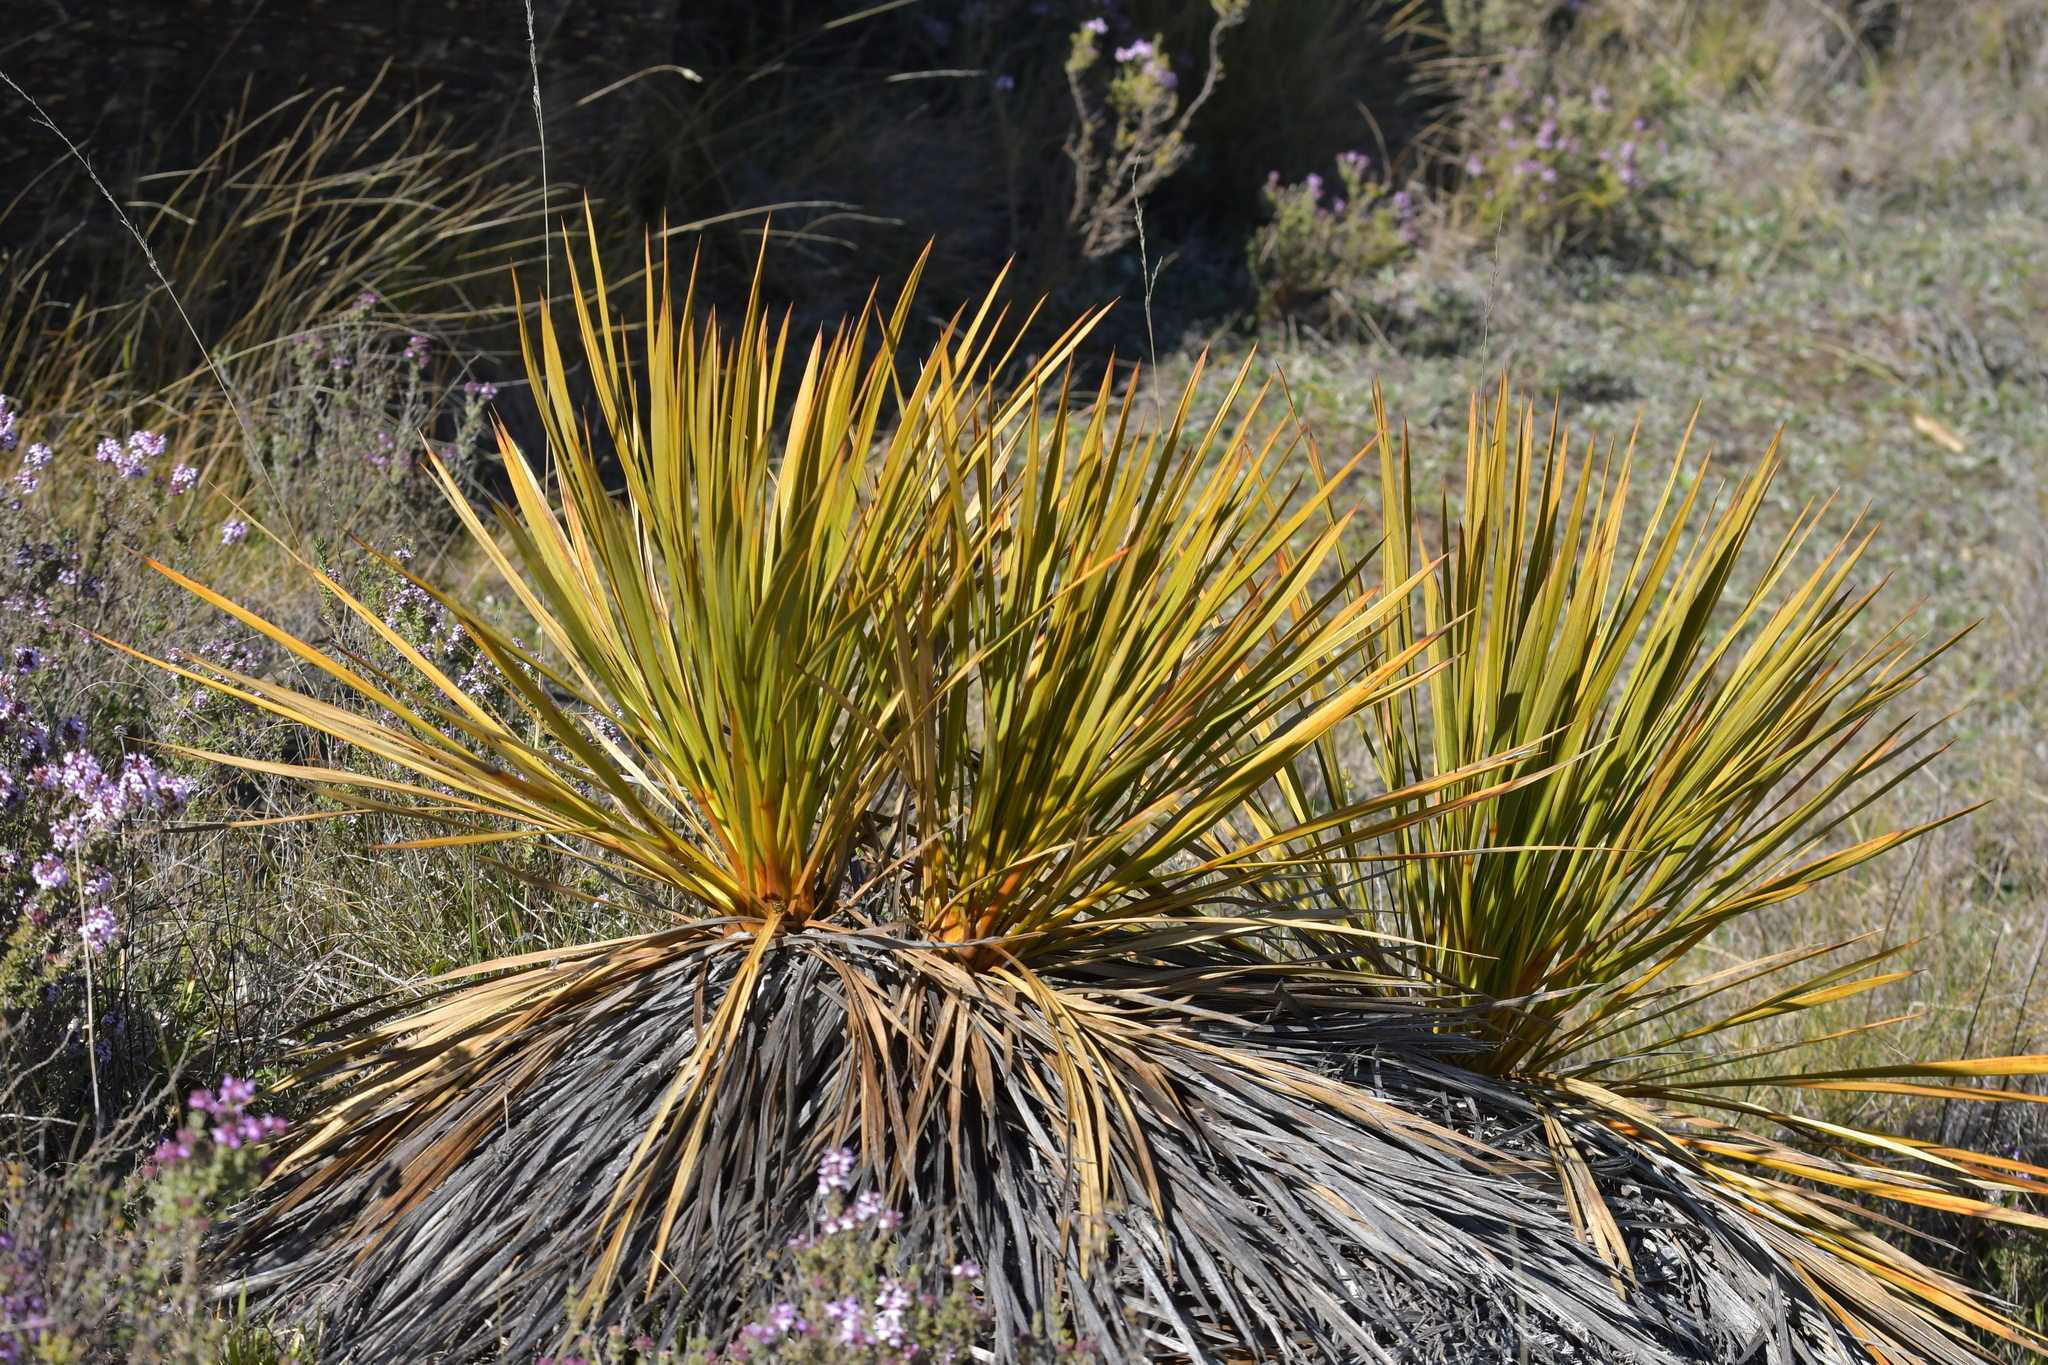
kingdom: Plantae
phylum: Tracheophyta
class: Magnoliopsida
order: Apiales
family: Apiaceae
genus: Aciphylla
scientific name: Aciphylla aurea
